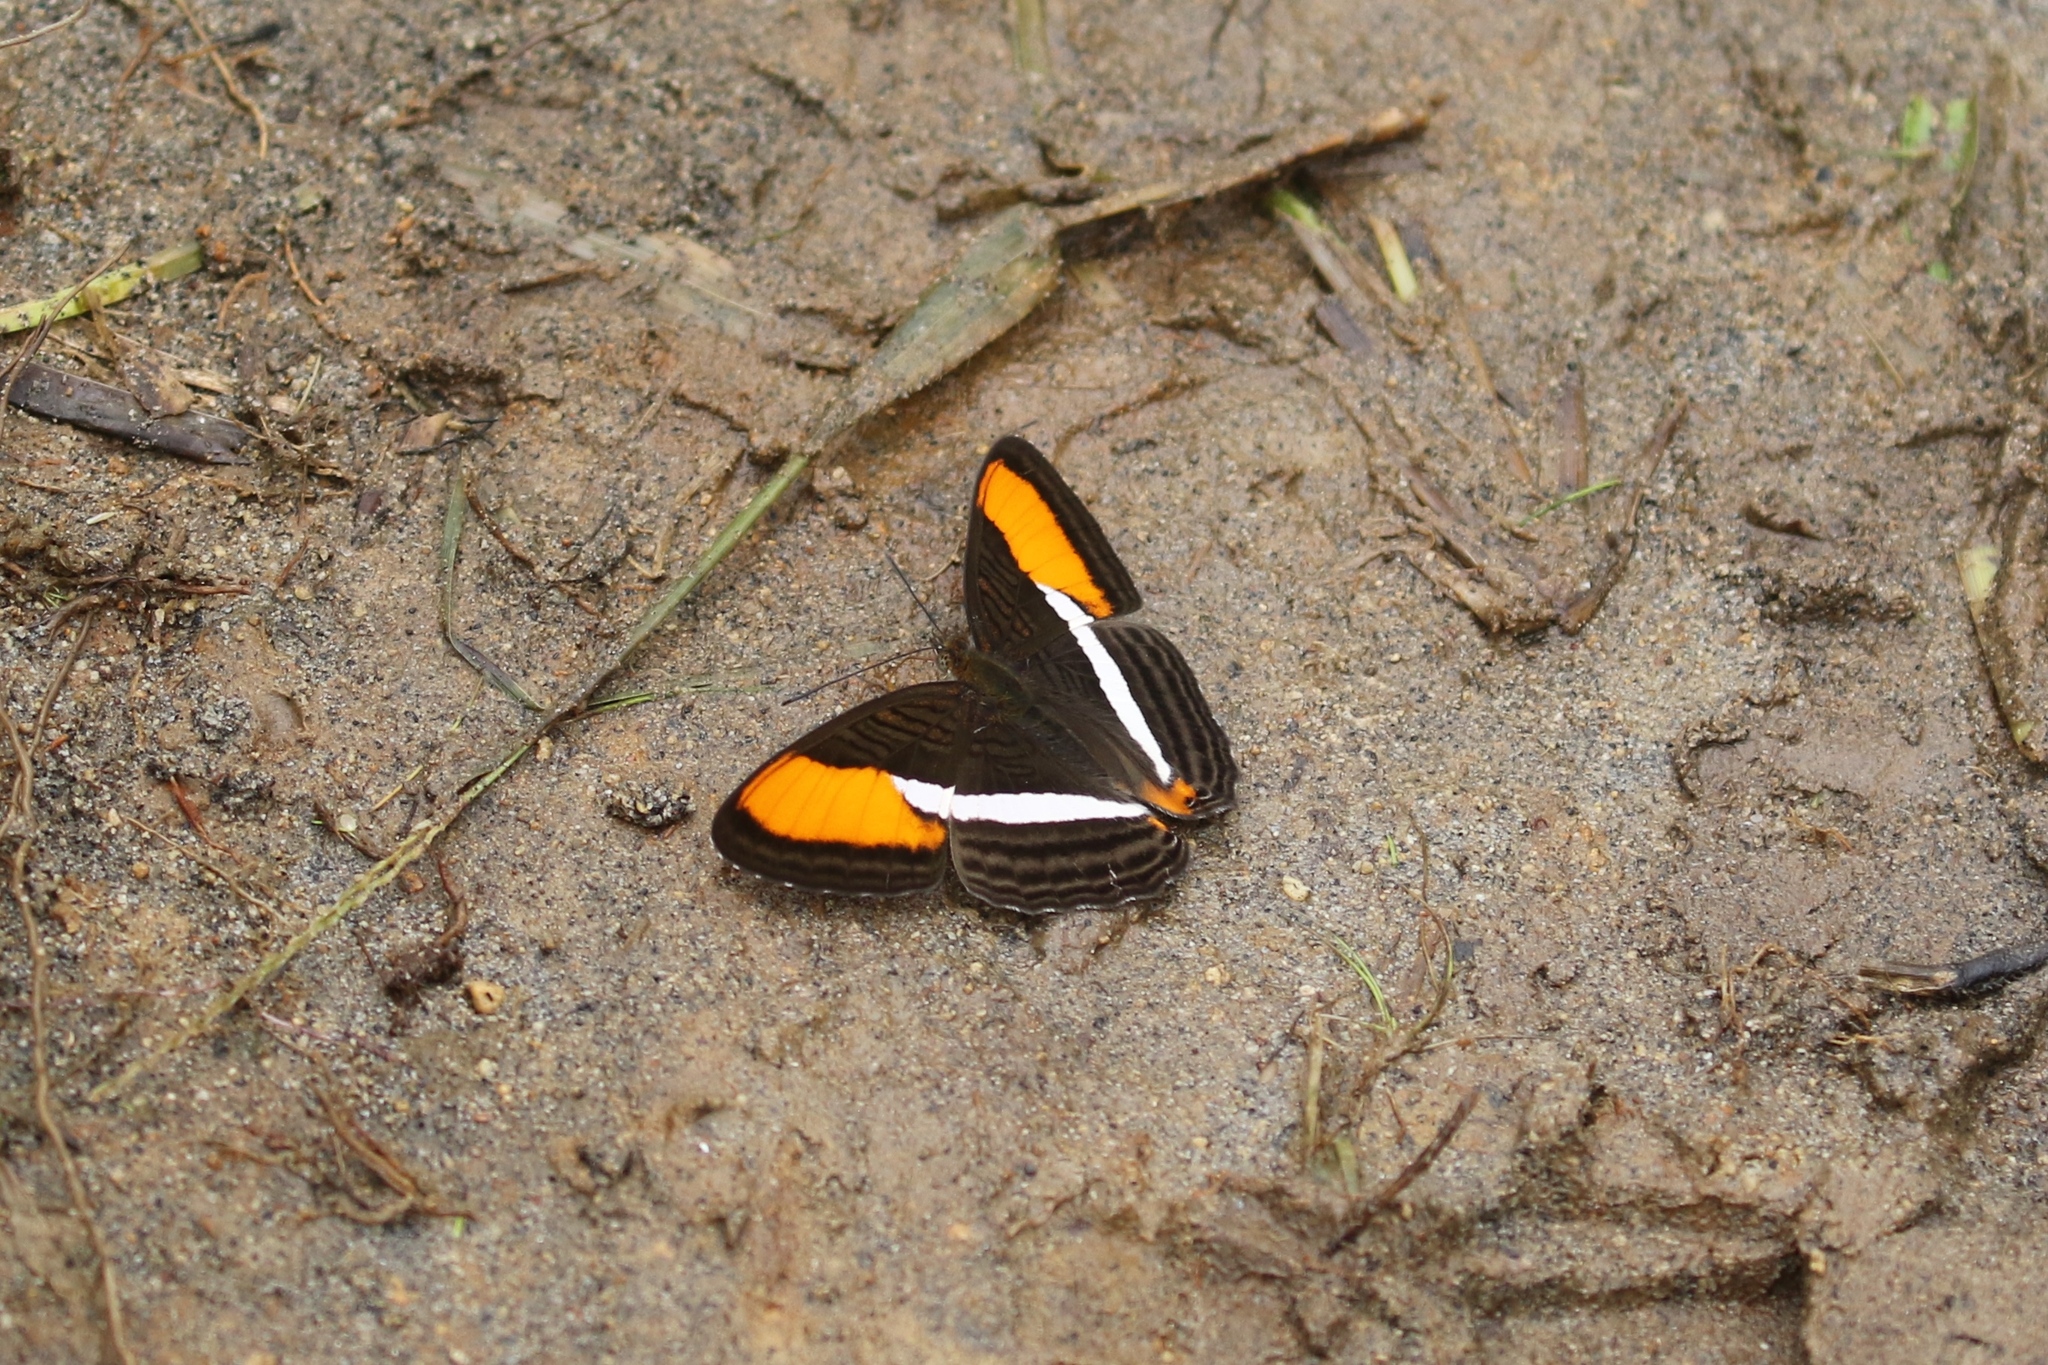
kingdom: Animalia
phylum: Arthropoda
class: Insecta
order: Lepidoptera
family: Nymphalidae
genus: Limenitis
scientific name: Limenitis cytherea
